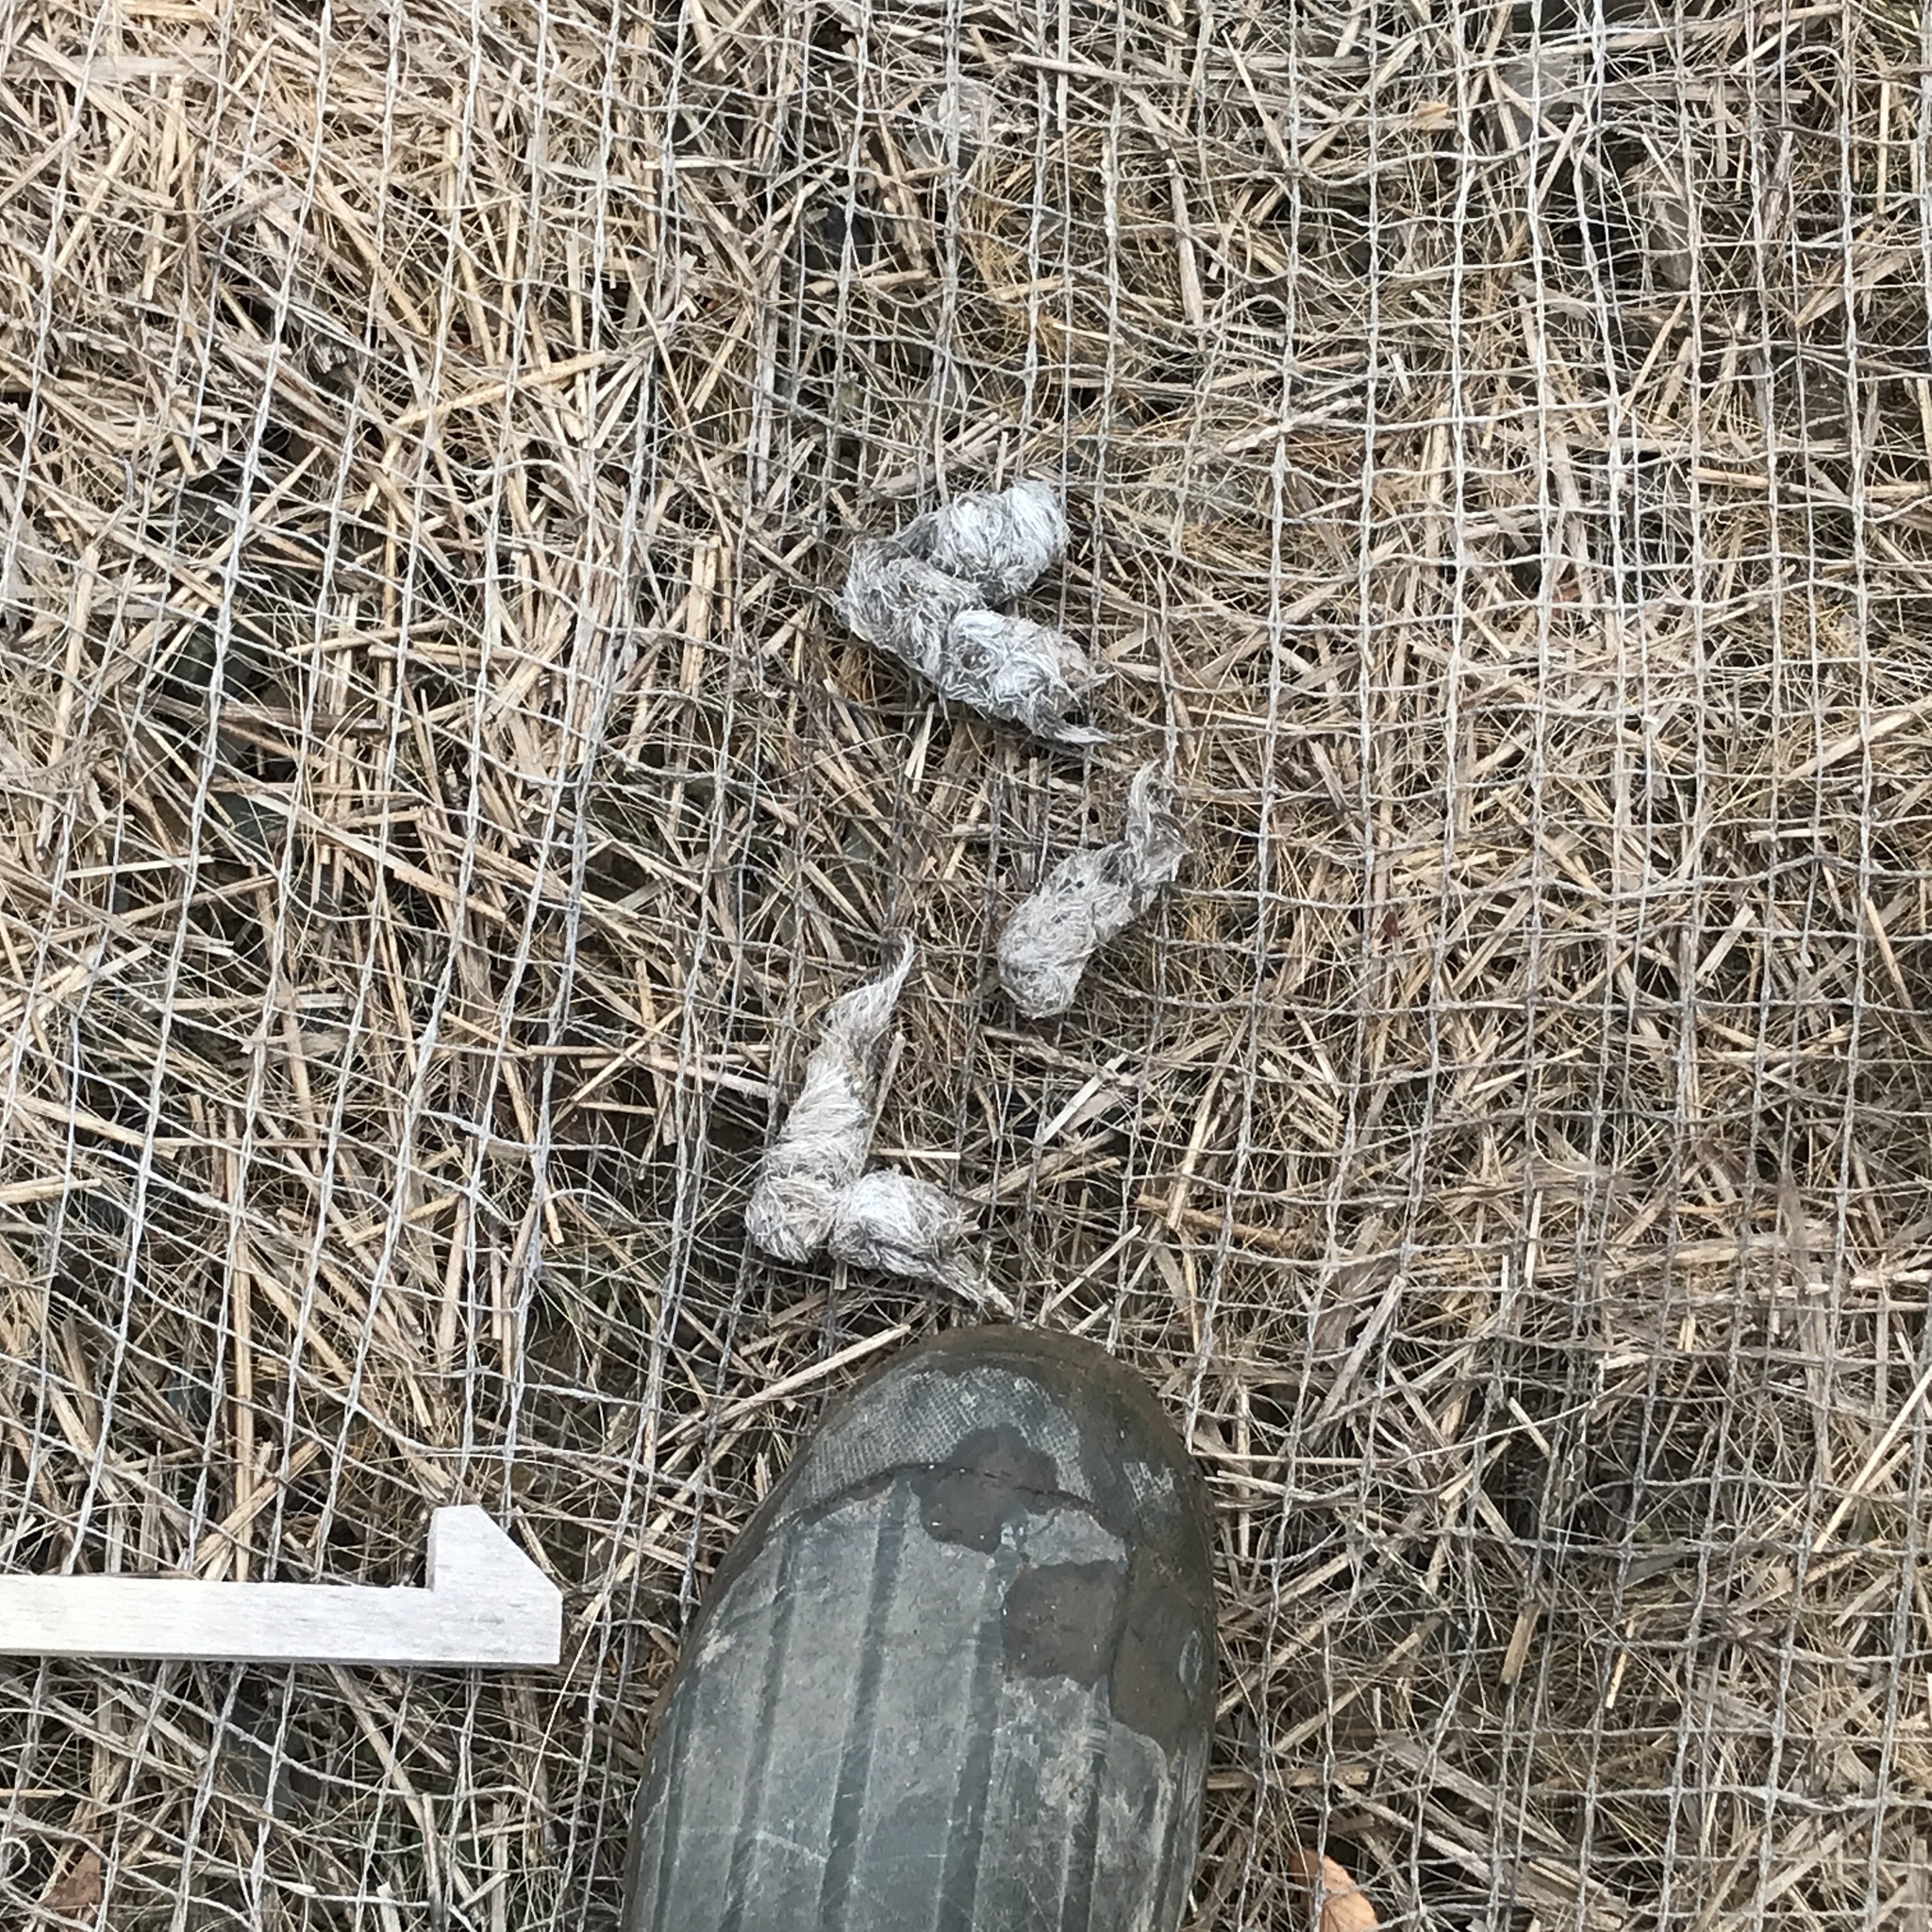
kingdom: Animalia
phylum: Chordata
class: Mammalia
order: Carnivora
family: Canidae
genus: Canis
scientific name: Canis latrans
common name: Coyote
